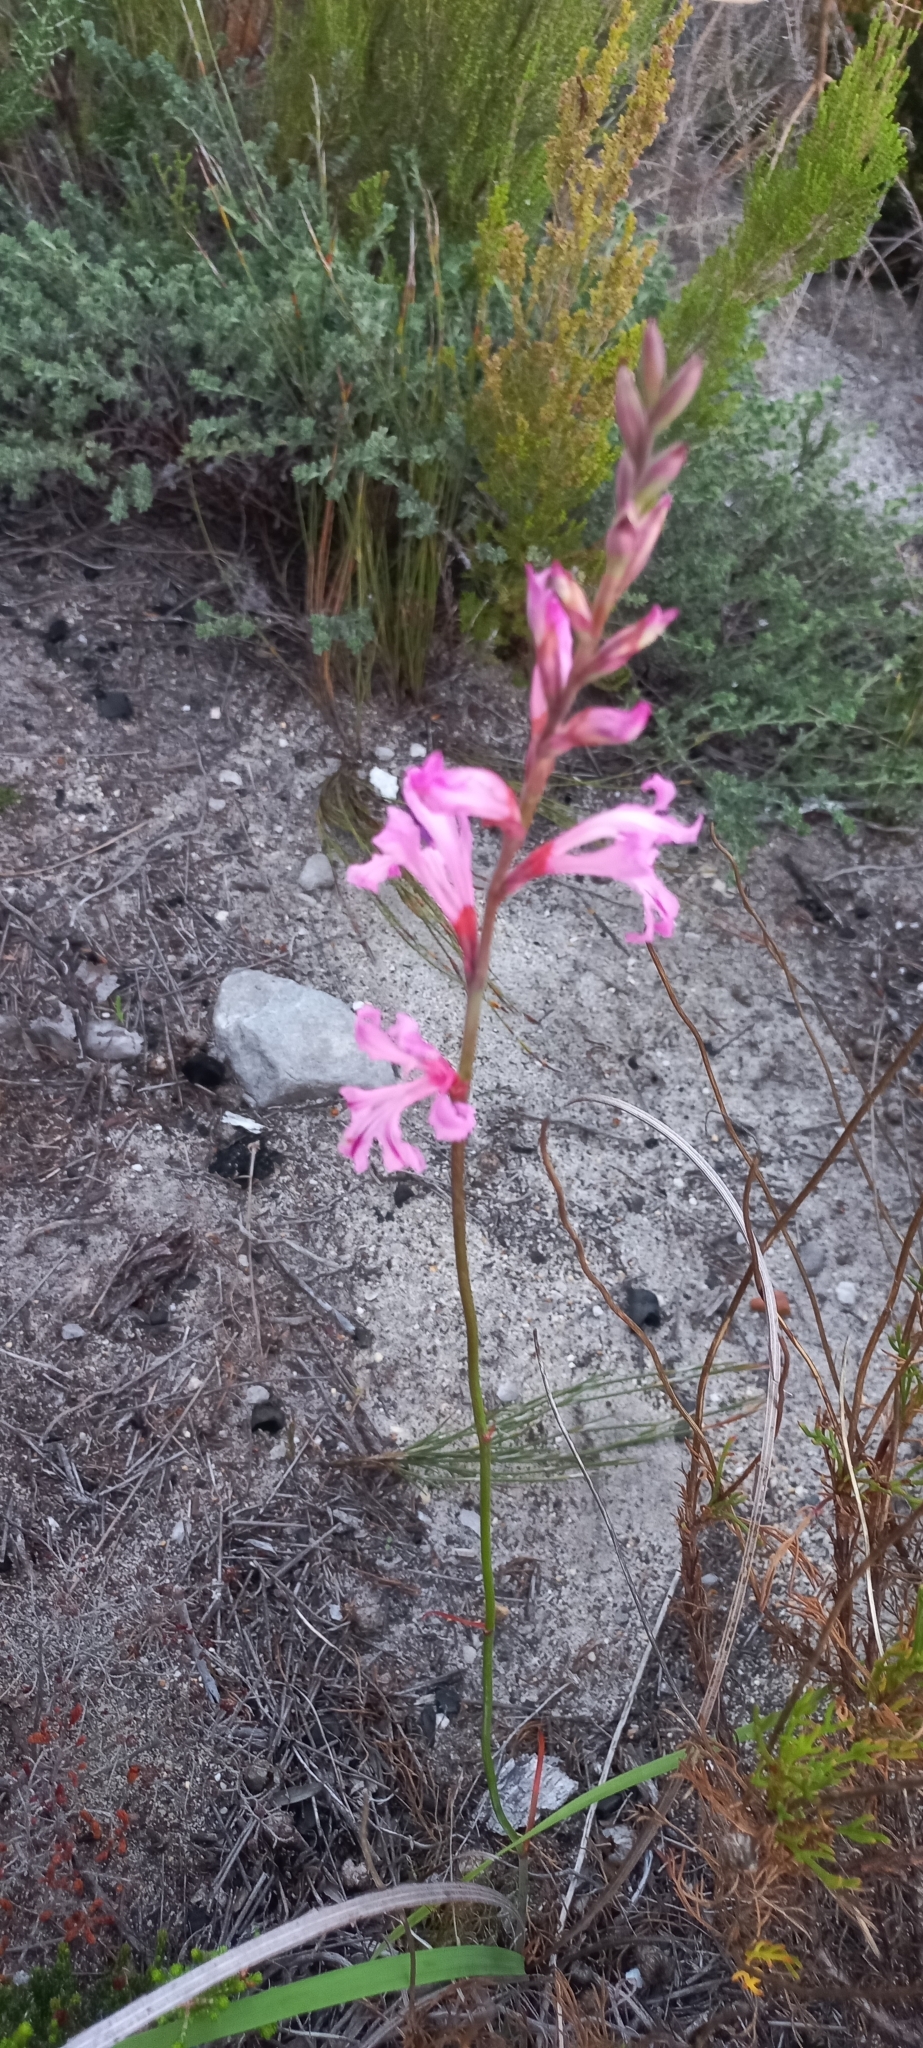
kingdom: Plantae
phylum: Tracheophyta
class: Liliopsida
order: Asparagales
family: Iridaceae
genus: Tritoniopsis
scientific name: Tritoniopsis lata
